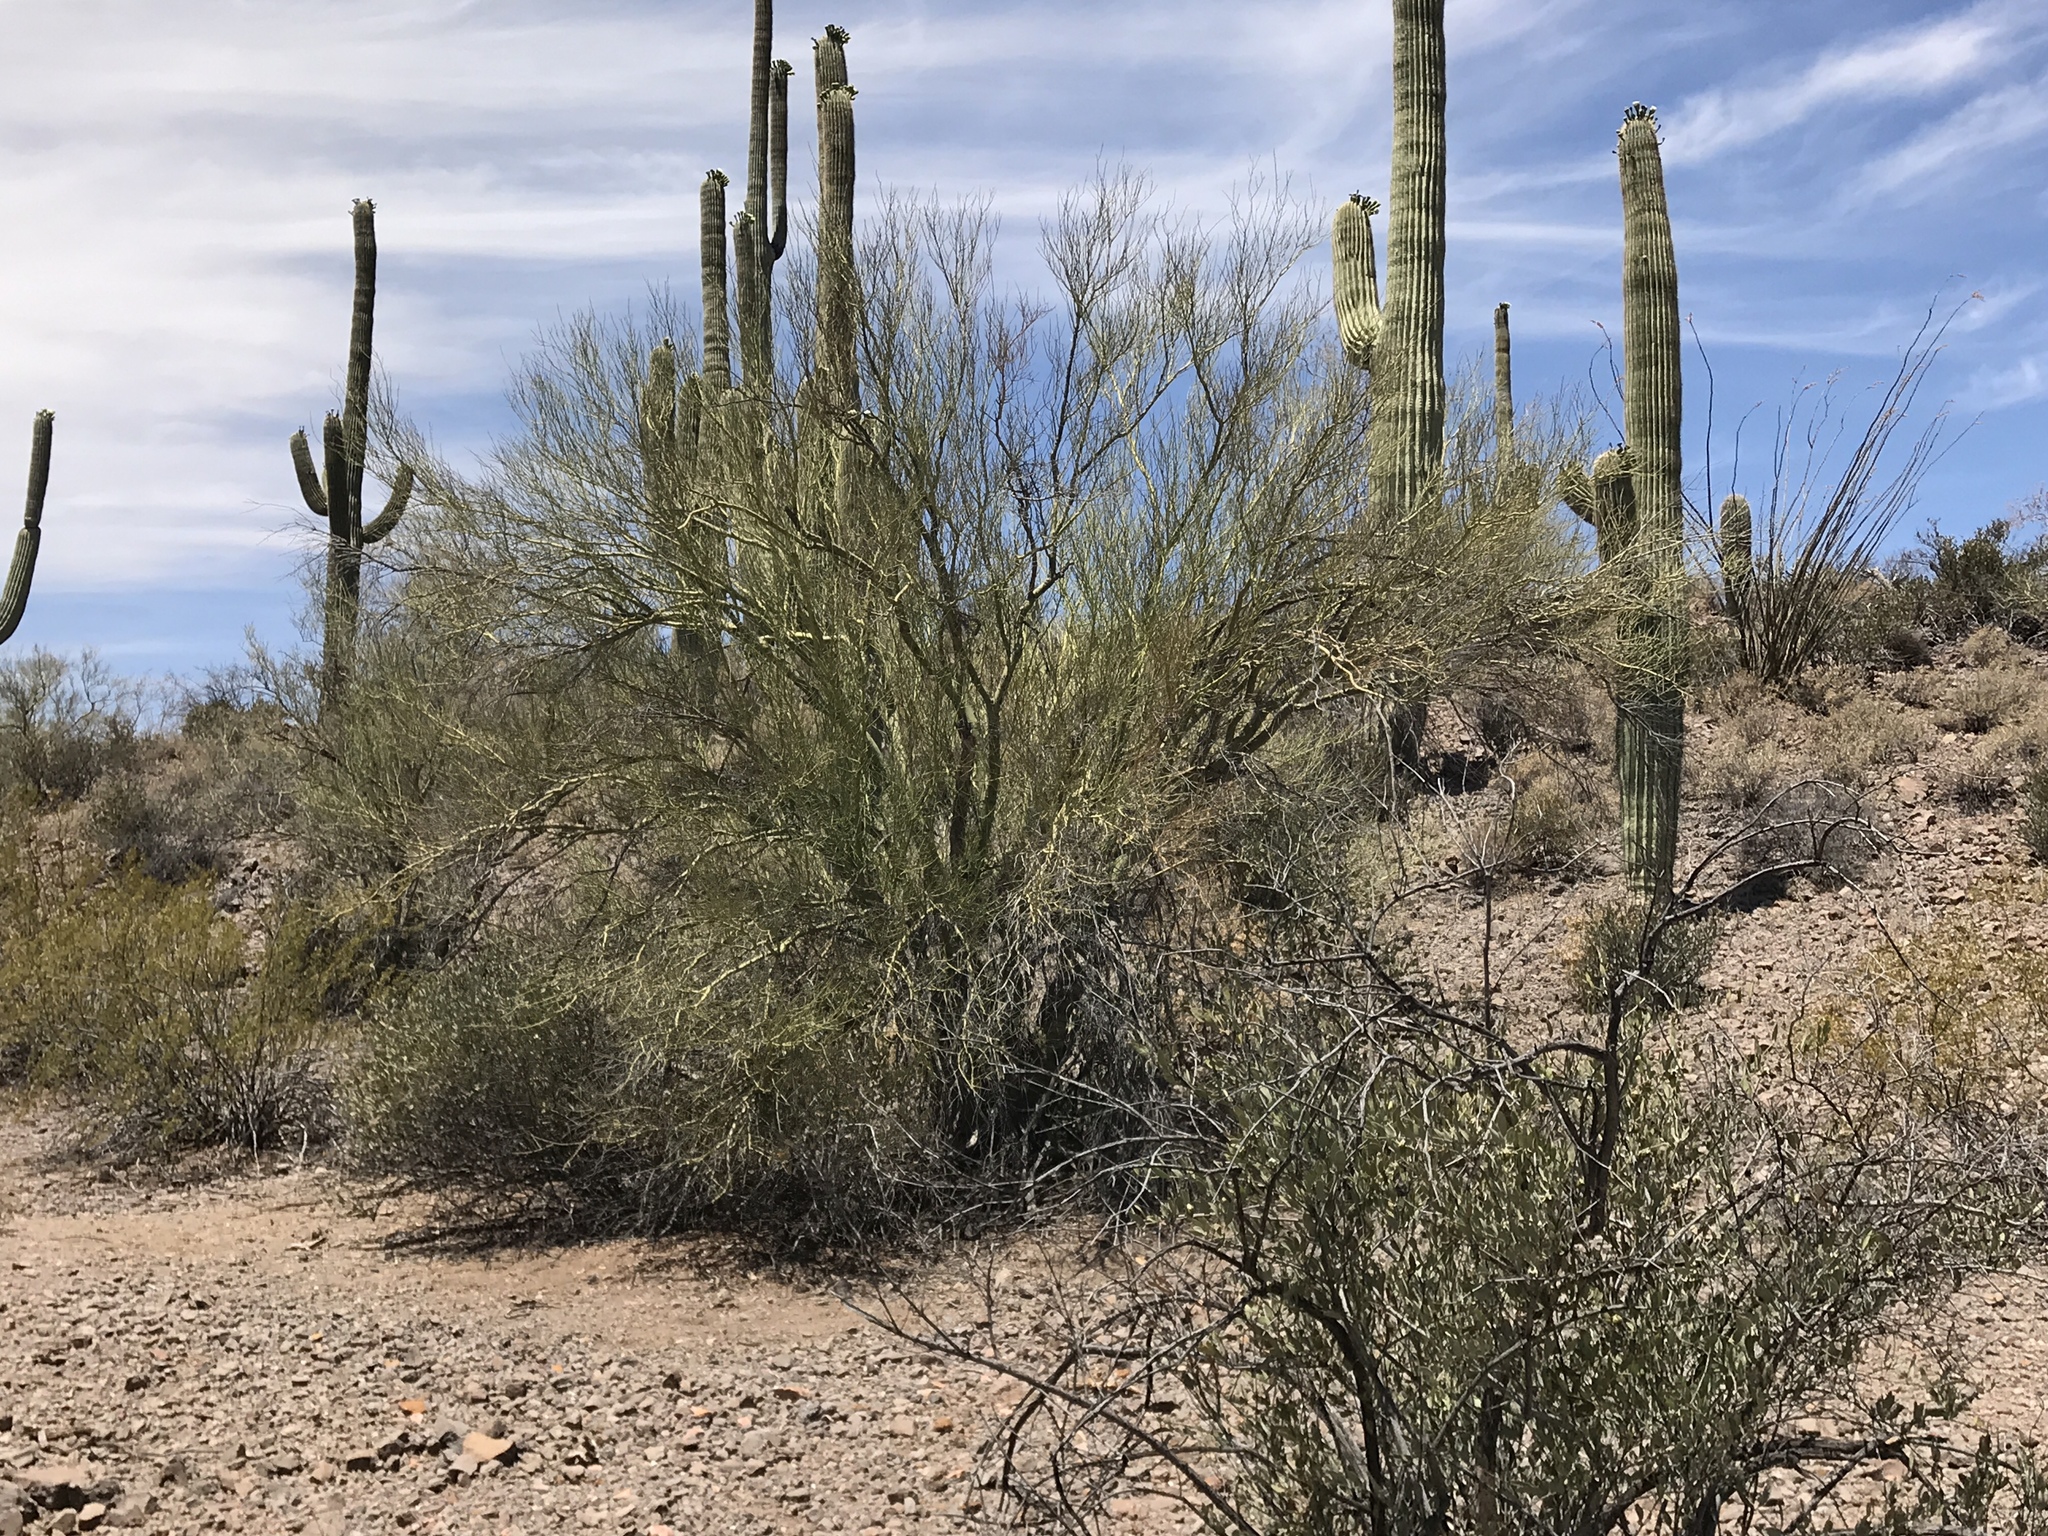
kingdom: Plantae
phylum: Tracheophyta
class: Magnoliopsida
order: Fabales
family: Fabaceae
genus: Parkinsonia
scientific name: Parkinsonia microphylla
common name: Yellow paloverde
